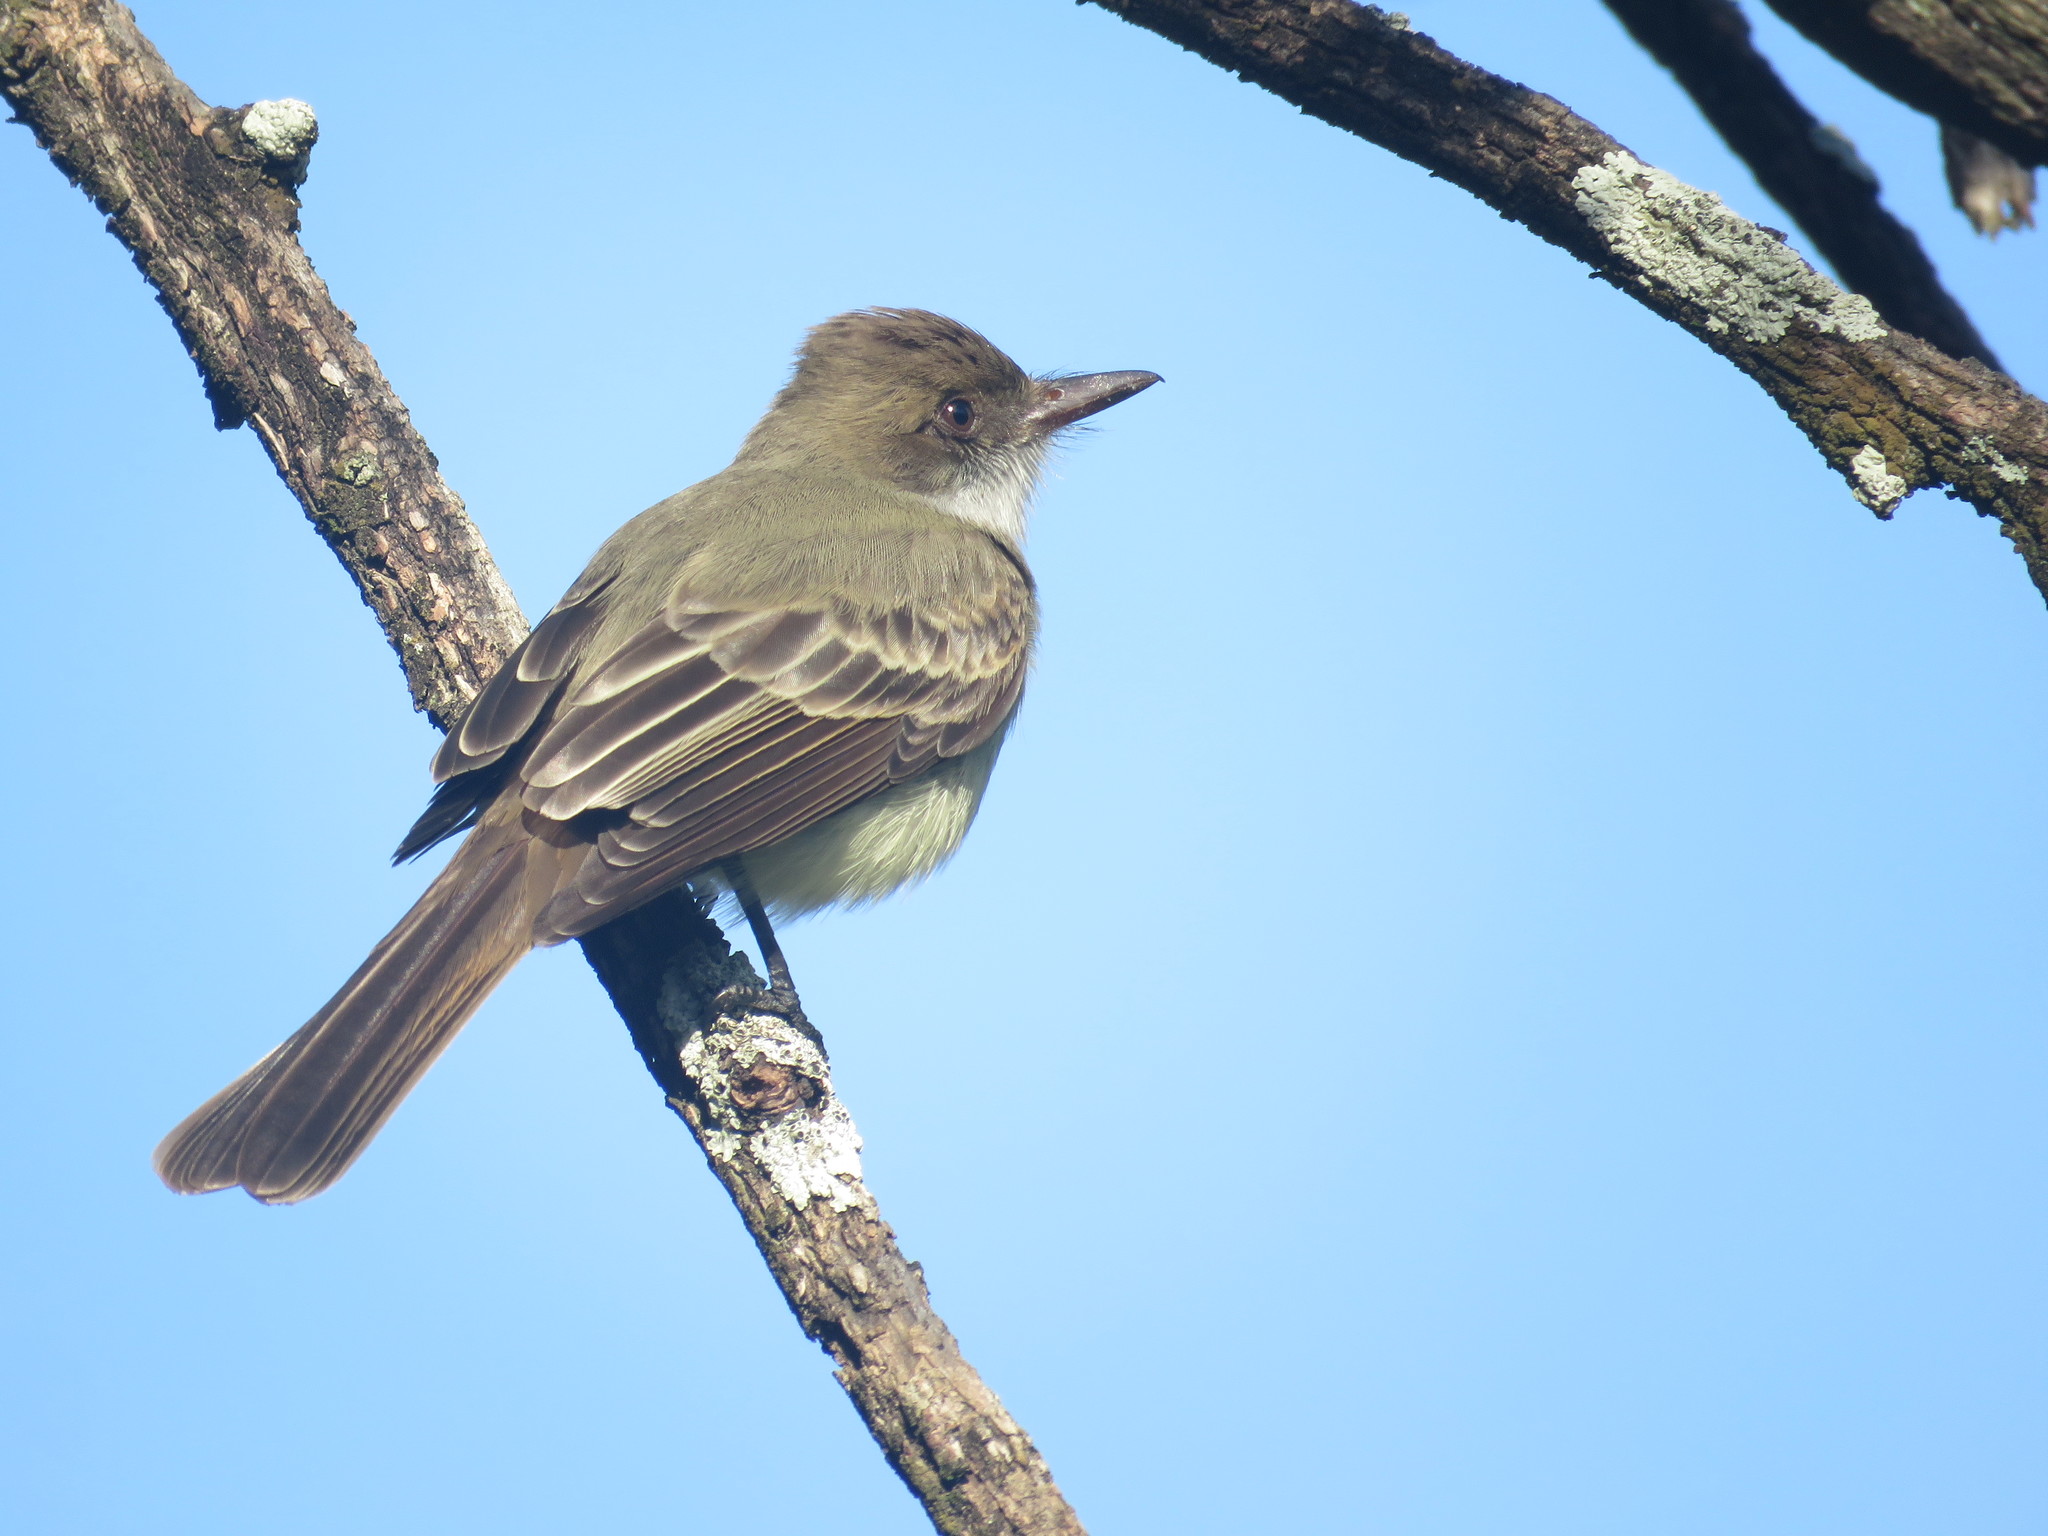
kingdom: Animalia
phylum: Chordata
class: Aves
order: Passeriformes
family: Tyrannidae
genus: Myiarchus
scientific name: Myiarchus swainsoni
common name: Swainson's flycatcher
